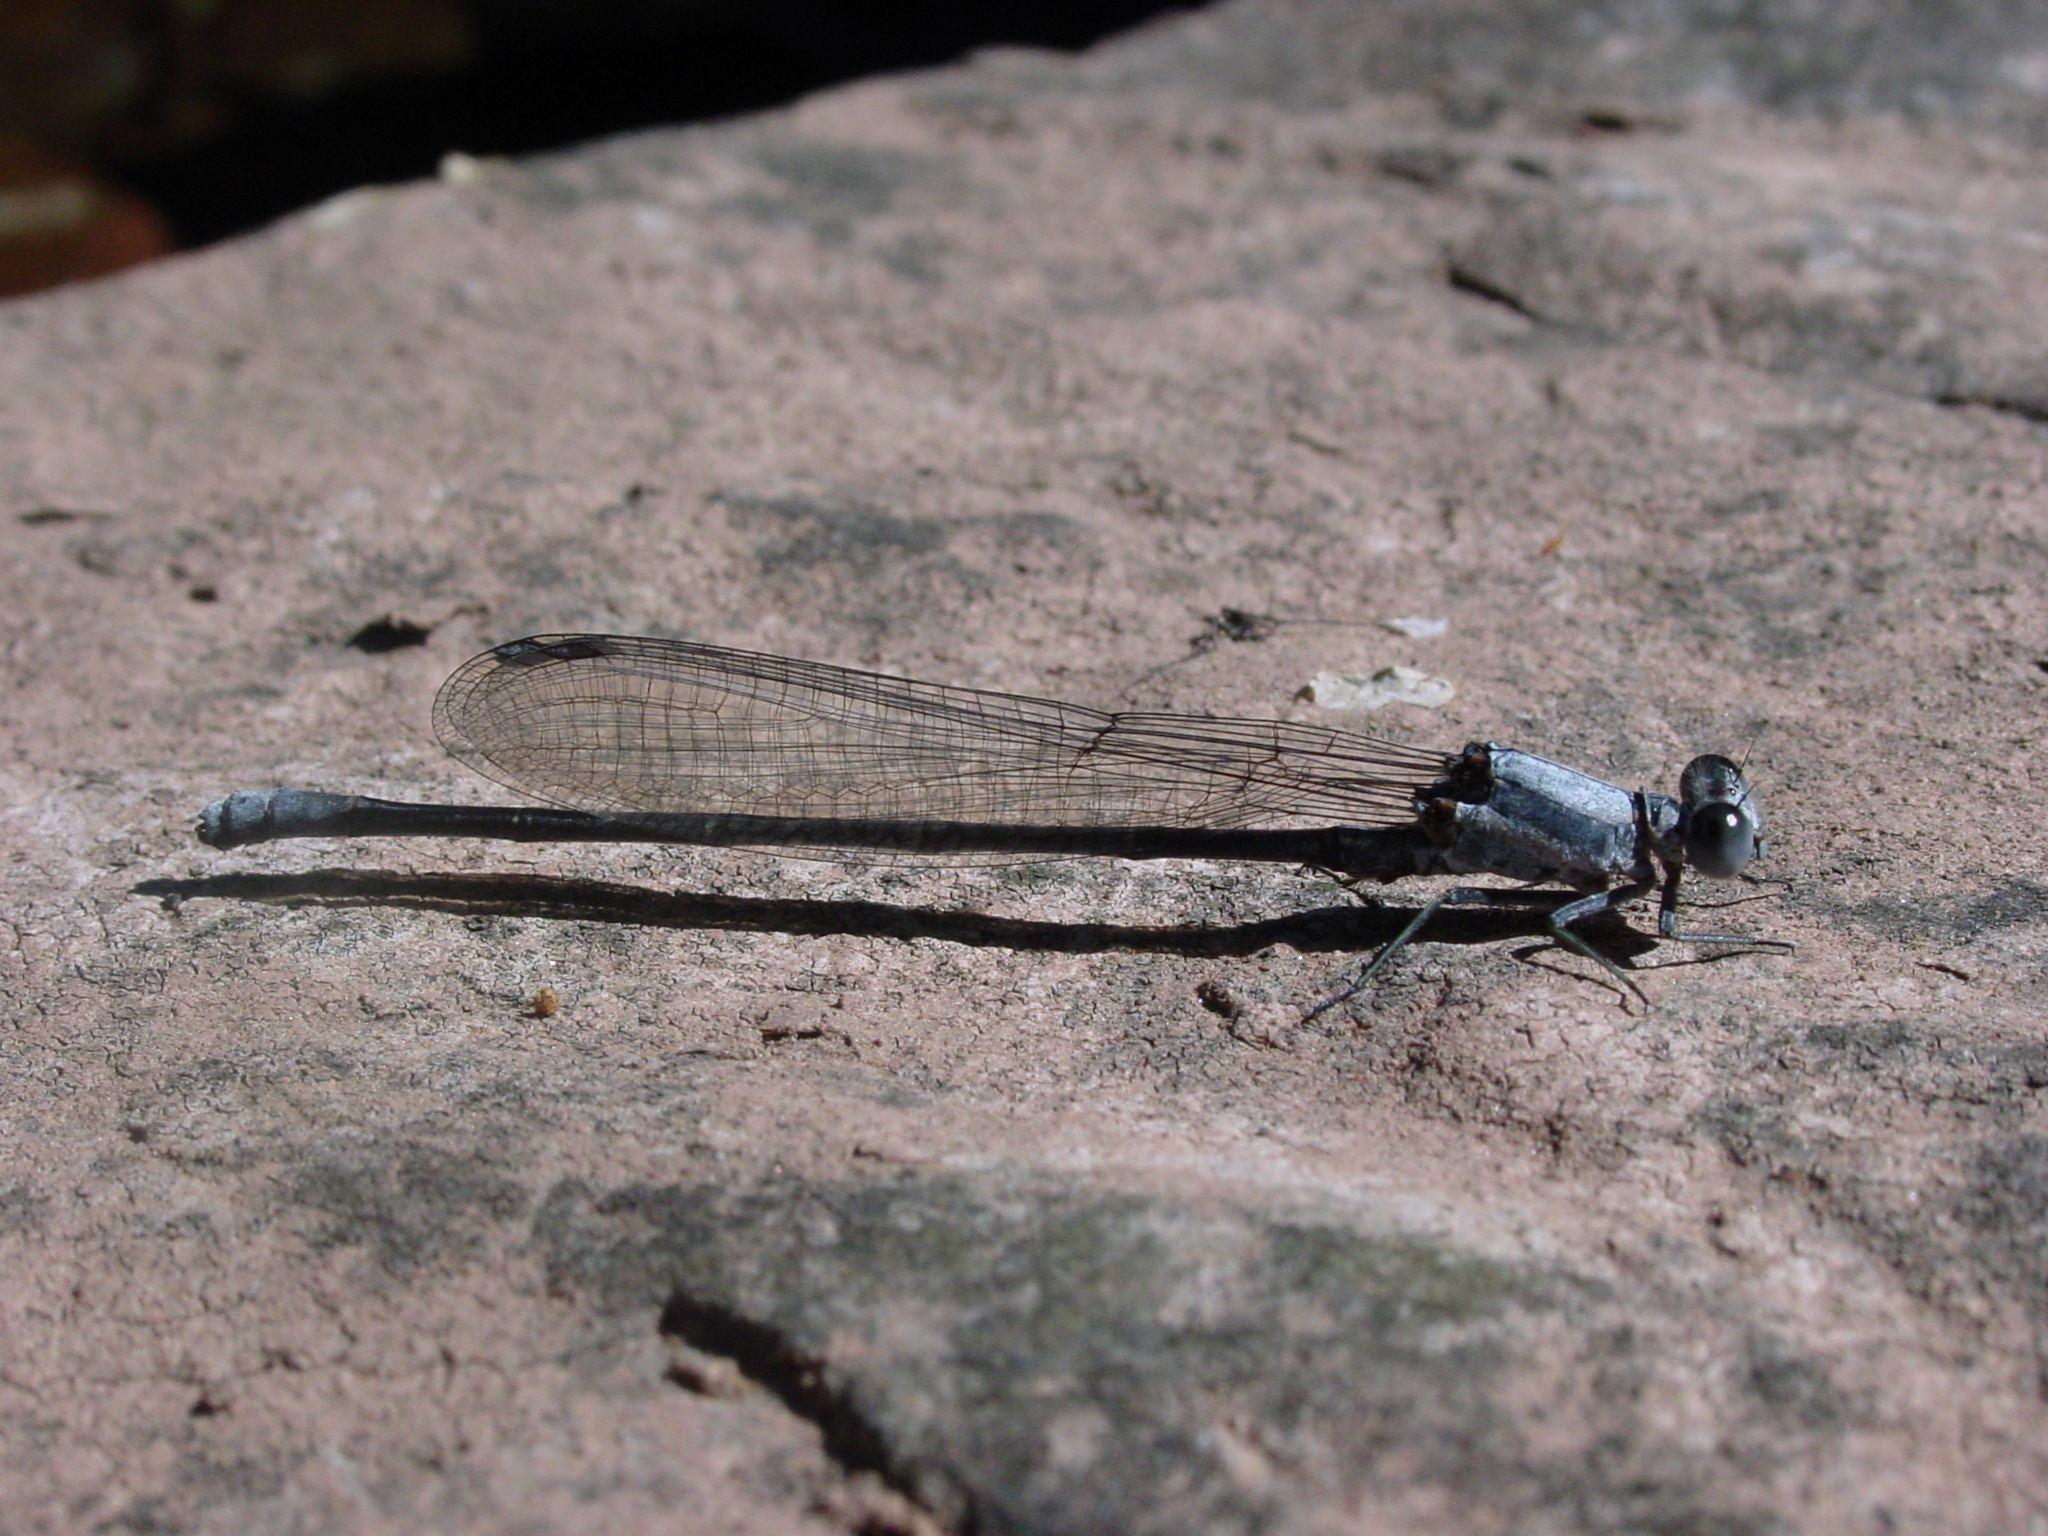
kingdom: Animalia
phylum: Arthropoda
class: Insecta
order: Odonata
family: Coenagrionidae
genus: Argia
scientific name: Argia moesta
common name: Powdered dancer
